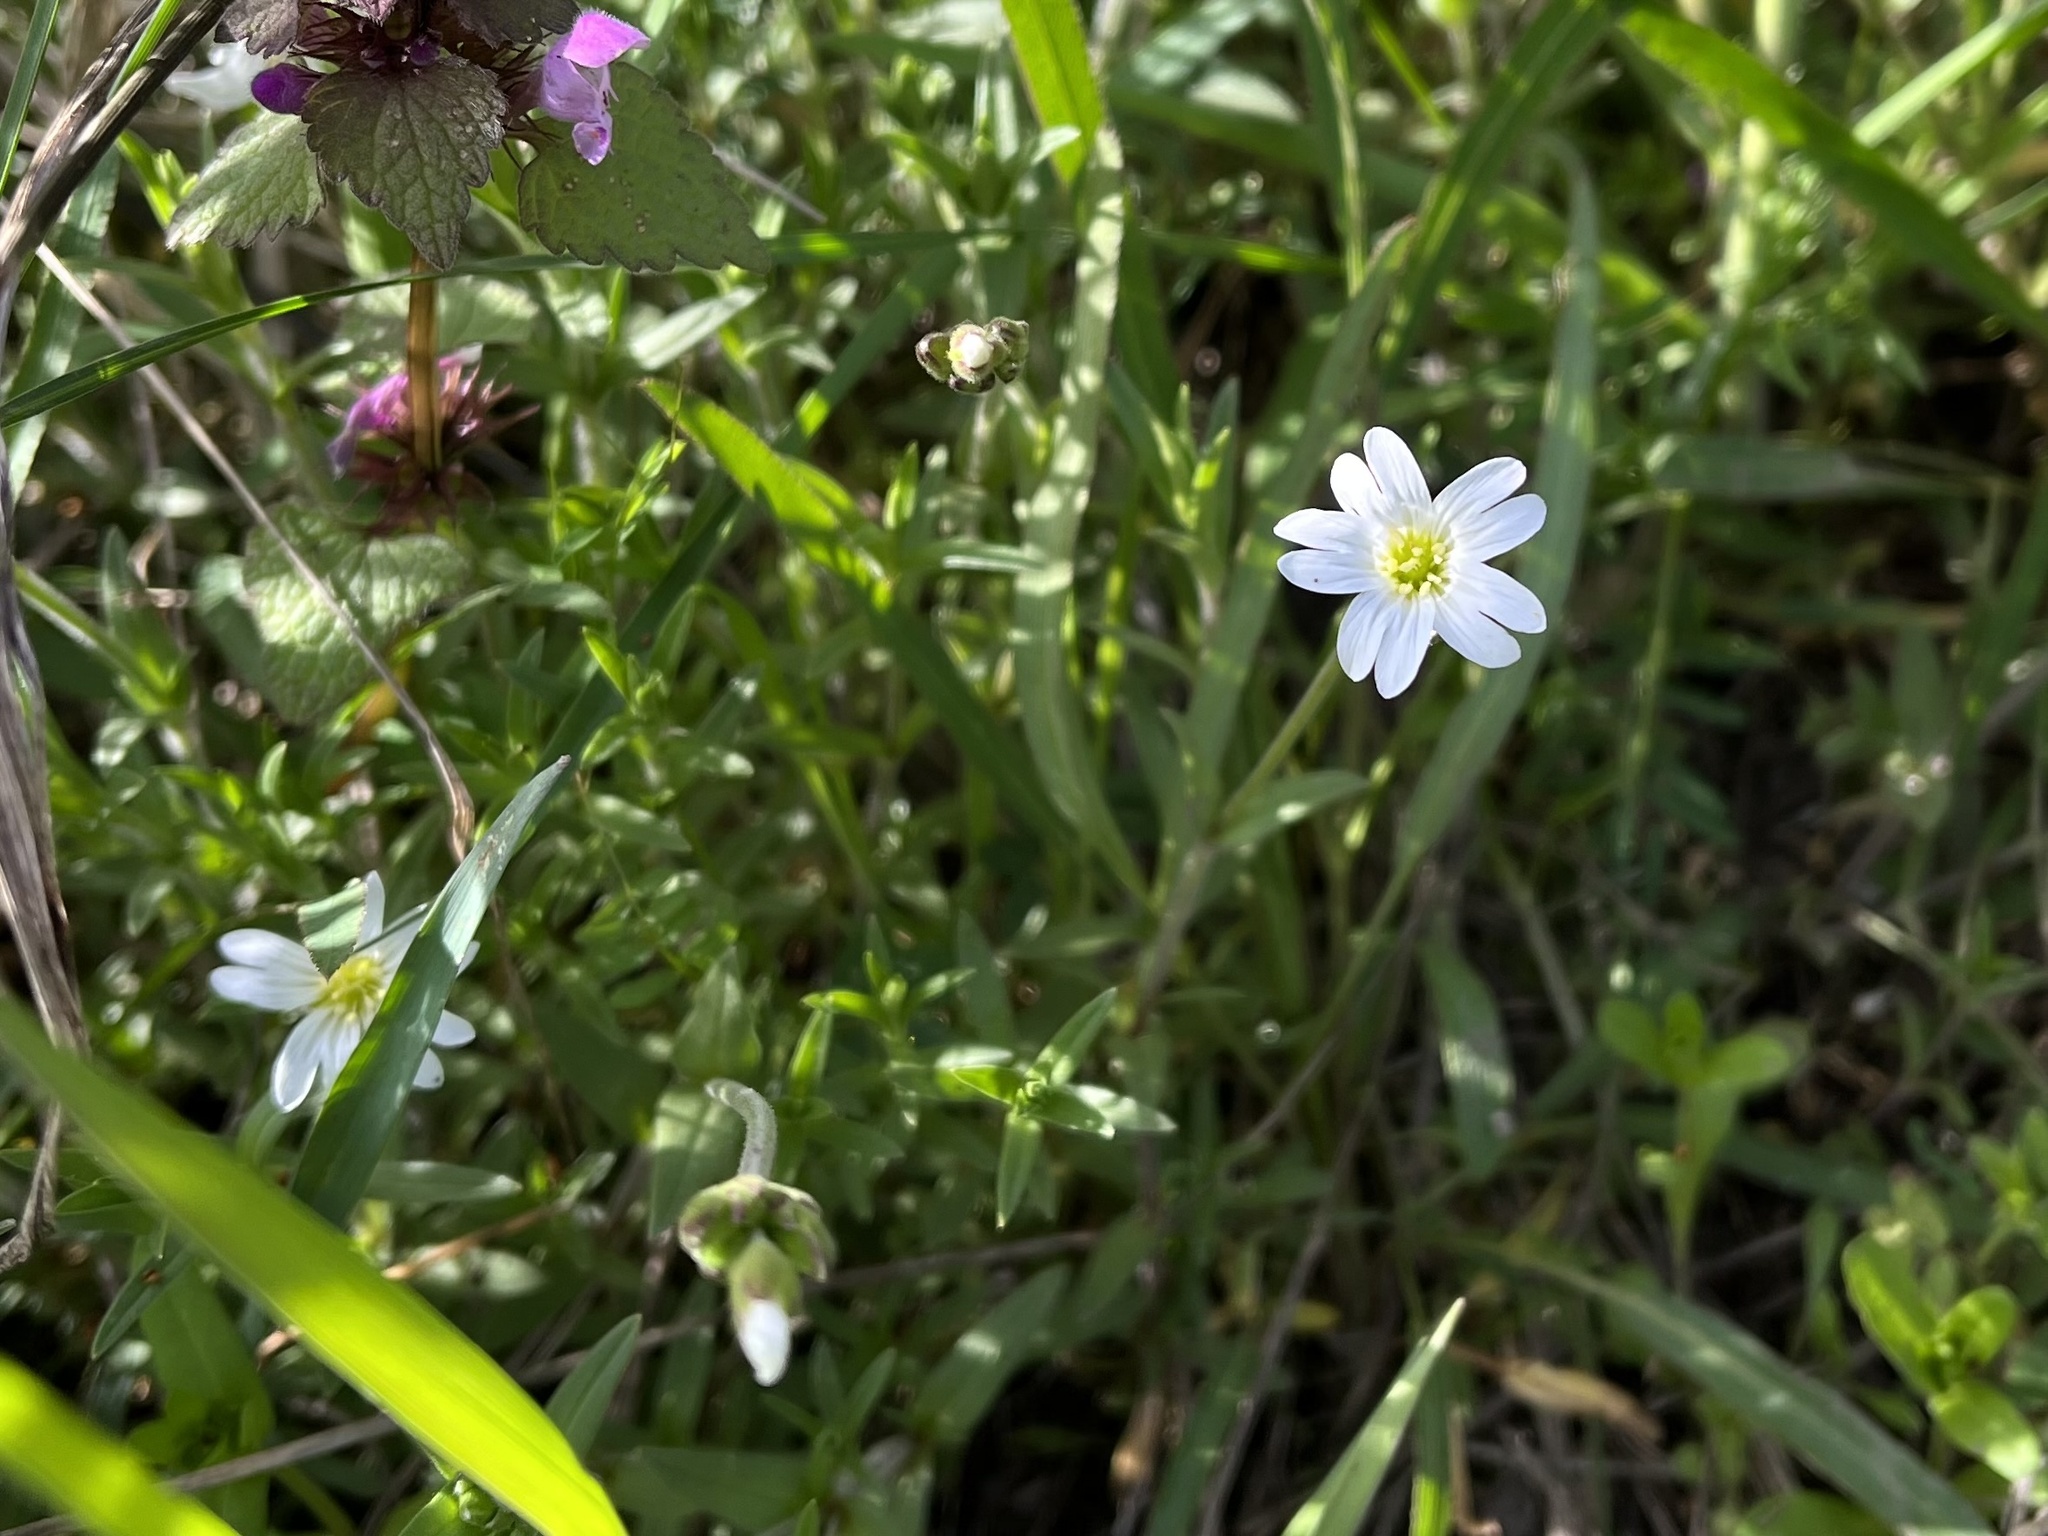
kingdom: Plantae
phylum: Tracheophyta
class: Magnoliopsida
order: Caryophyllales
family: Caryophyllaceae
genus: Cerastium
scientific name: Cerastium arvense
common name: Field mouse-ear
